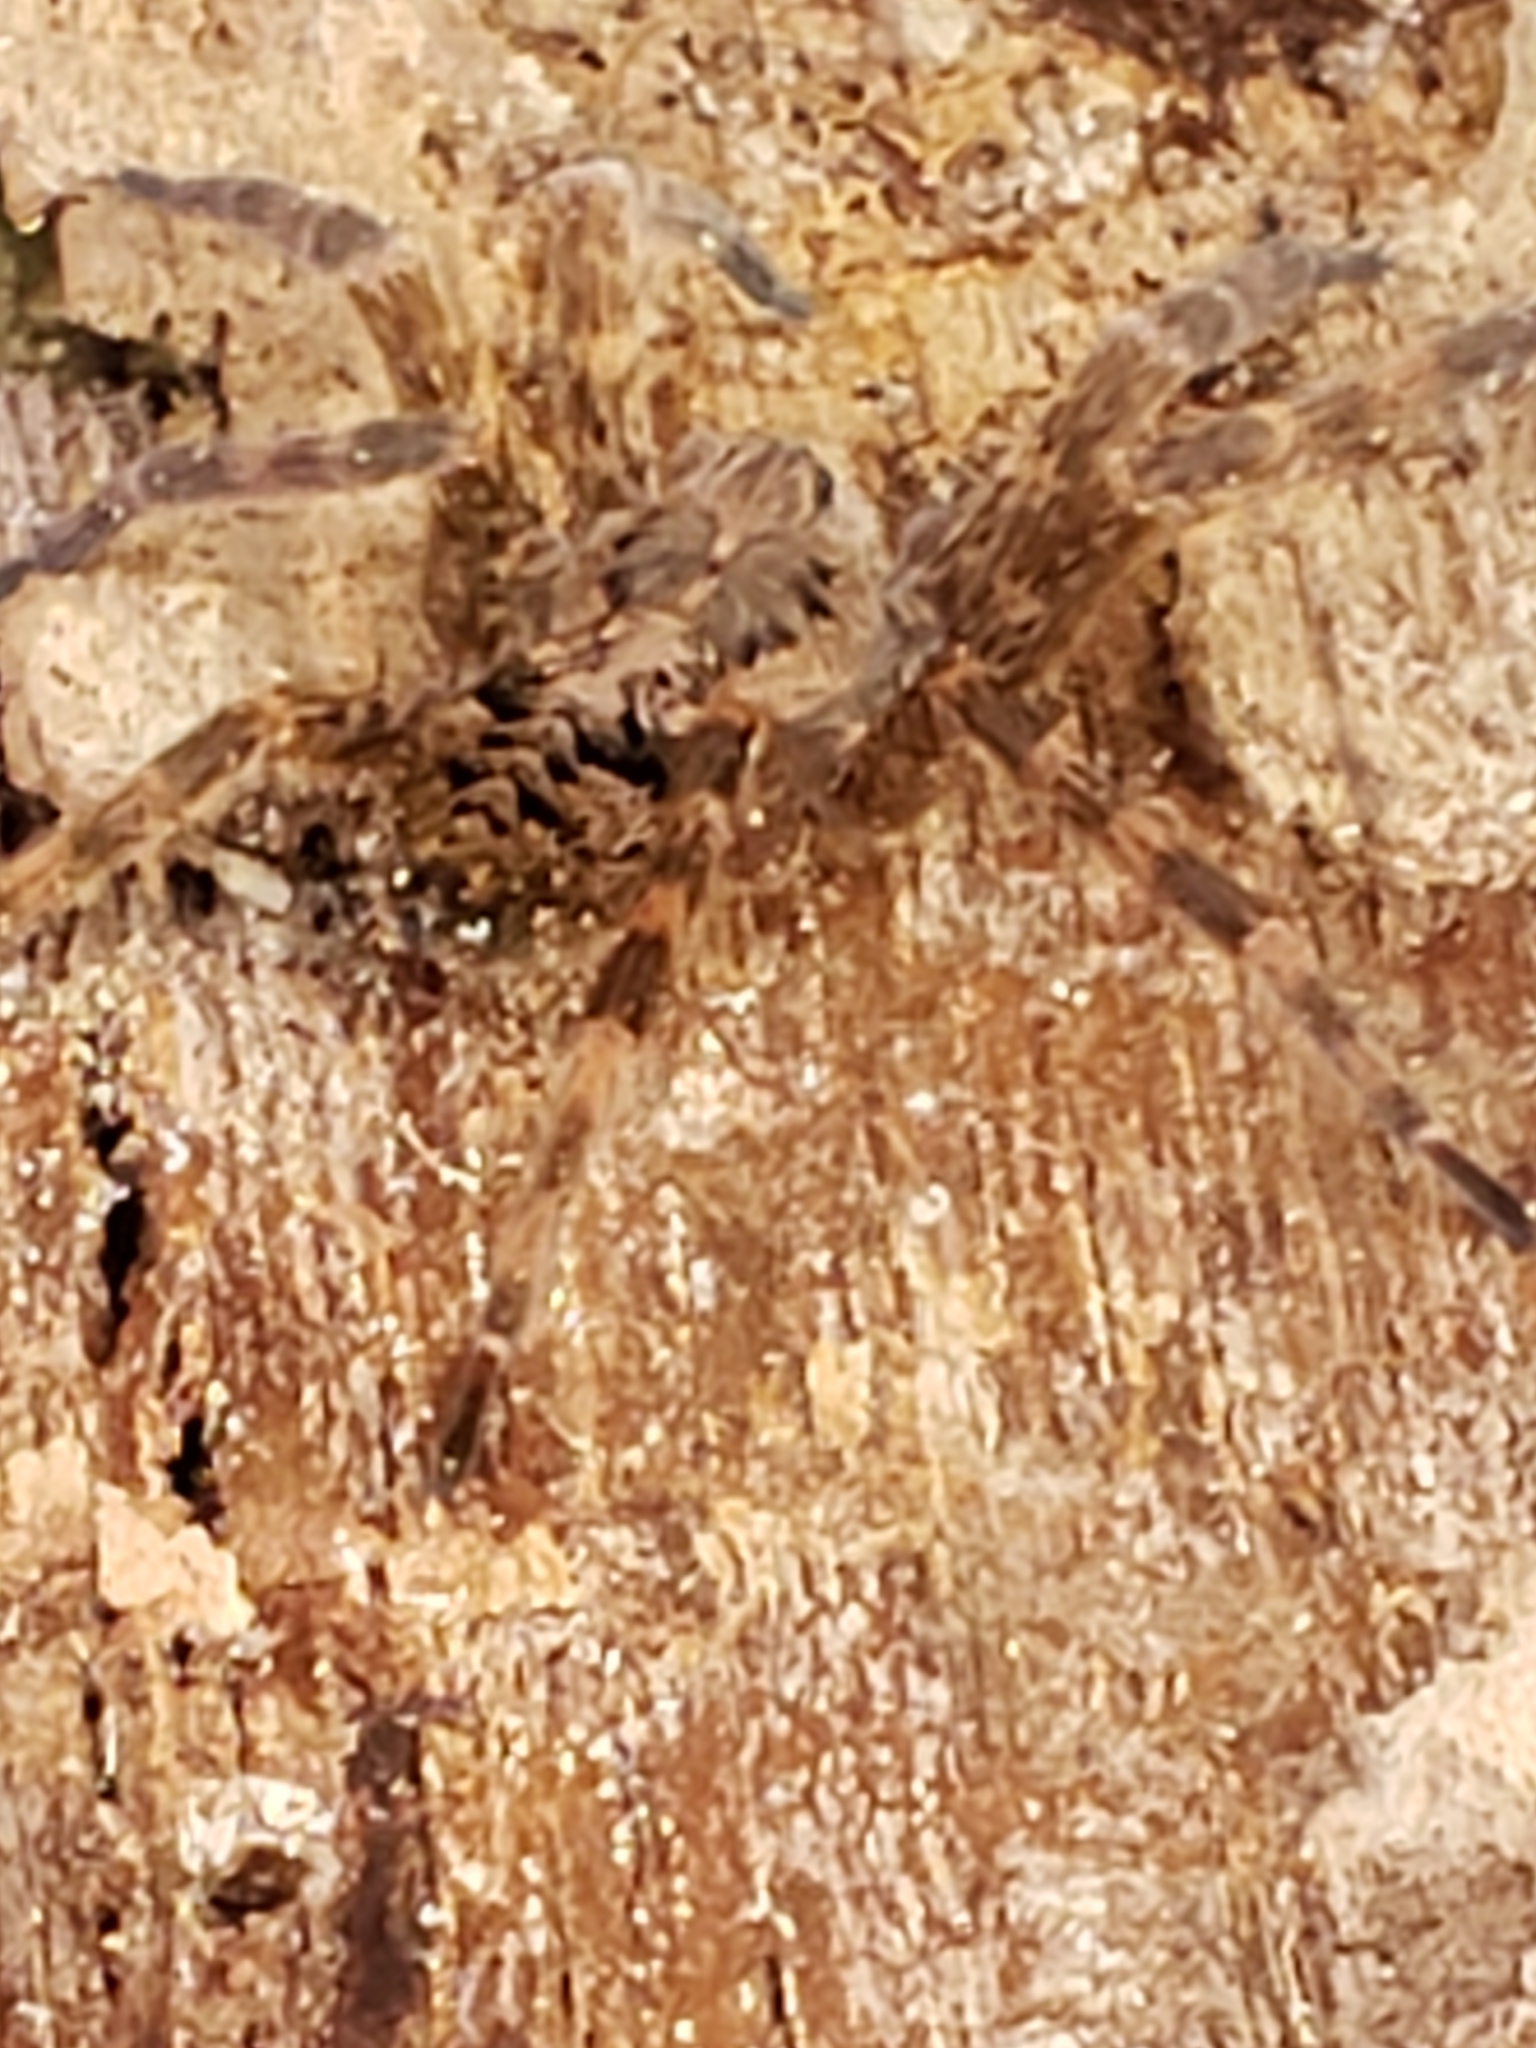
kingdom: Animalia
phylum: Arthropoda
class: Arachnida
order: Araneae
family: Pisauridae
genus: Dolomedes
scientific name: Dolomedes tenebrosus
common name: Dark fishing spider
